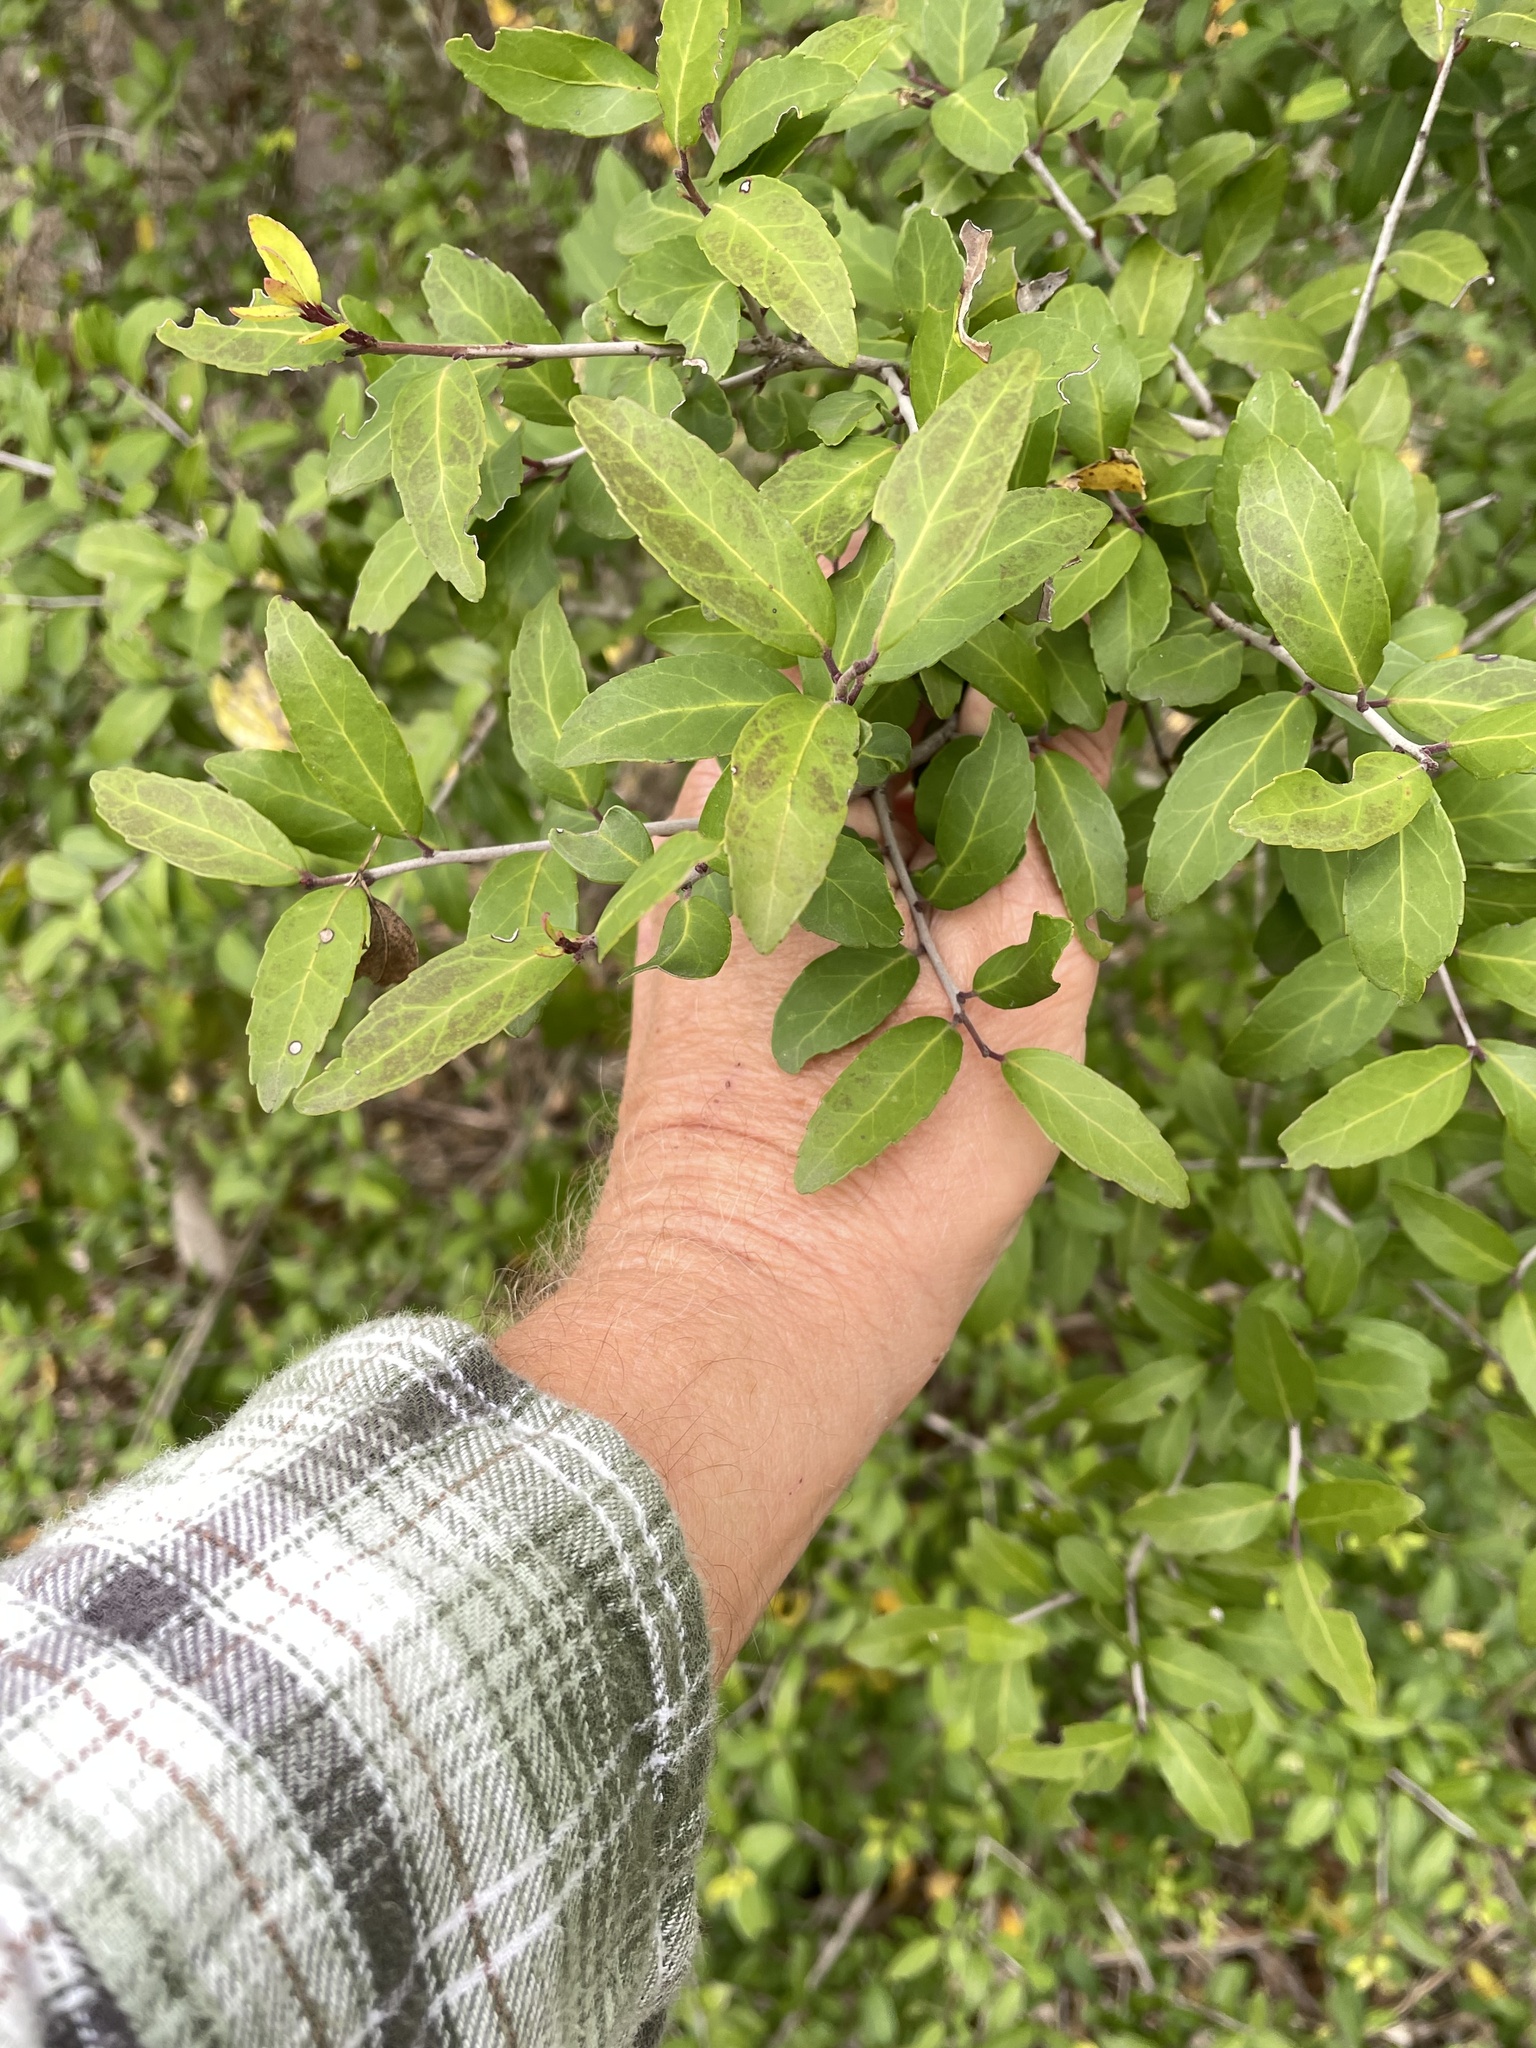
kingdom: Plantae
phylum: Tracheophyta
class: Magnoliopsida
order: Aquifoliales
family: Aquifoliaceae
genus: Ilex
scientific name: Ilex vomitoria
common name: Yaupon holly
